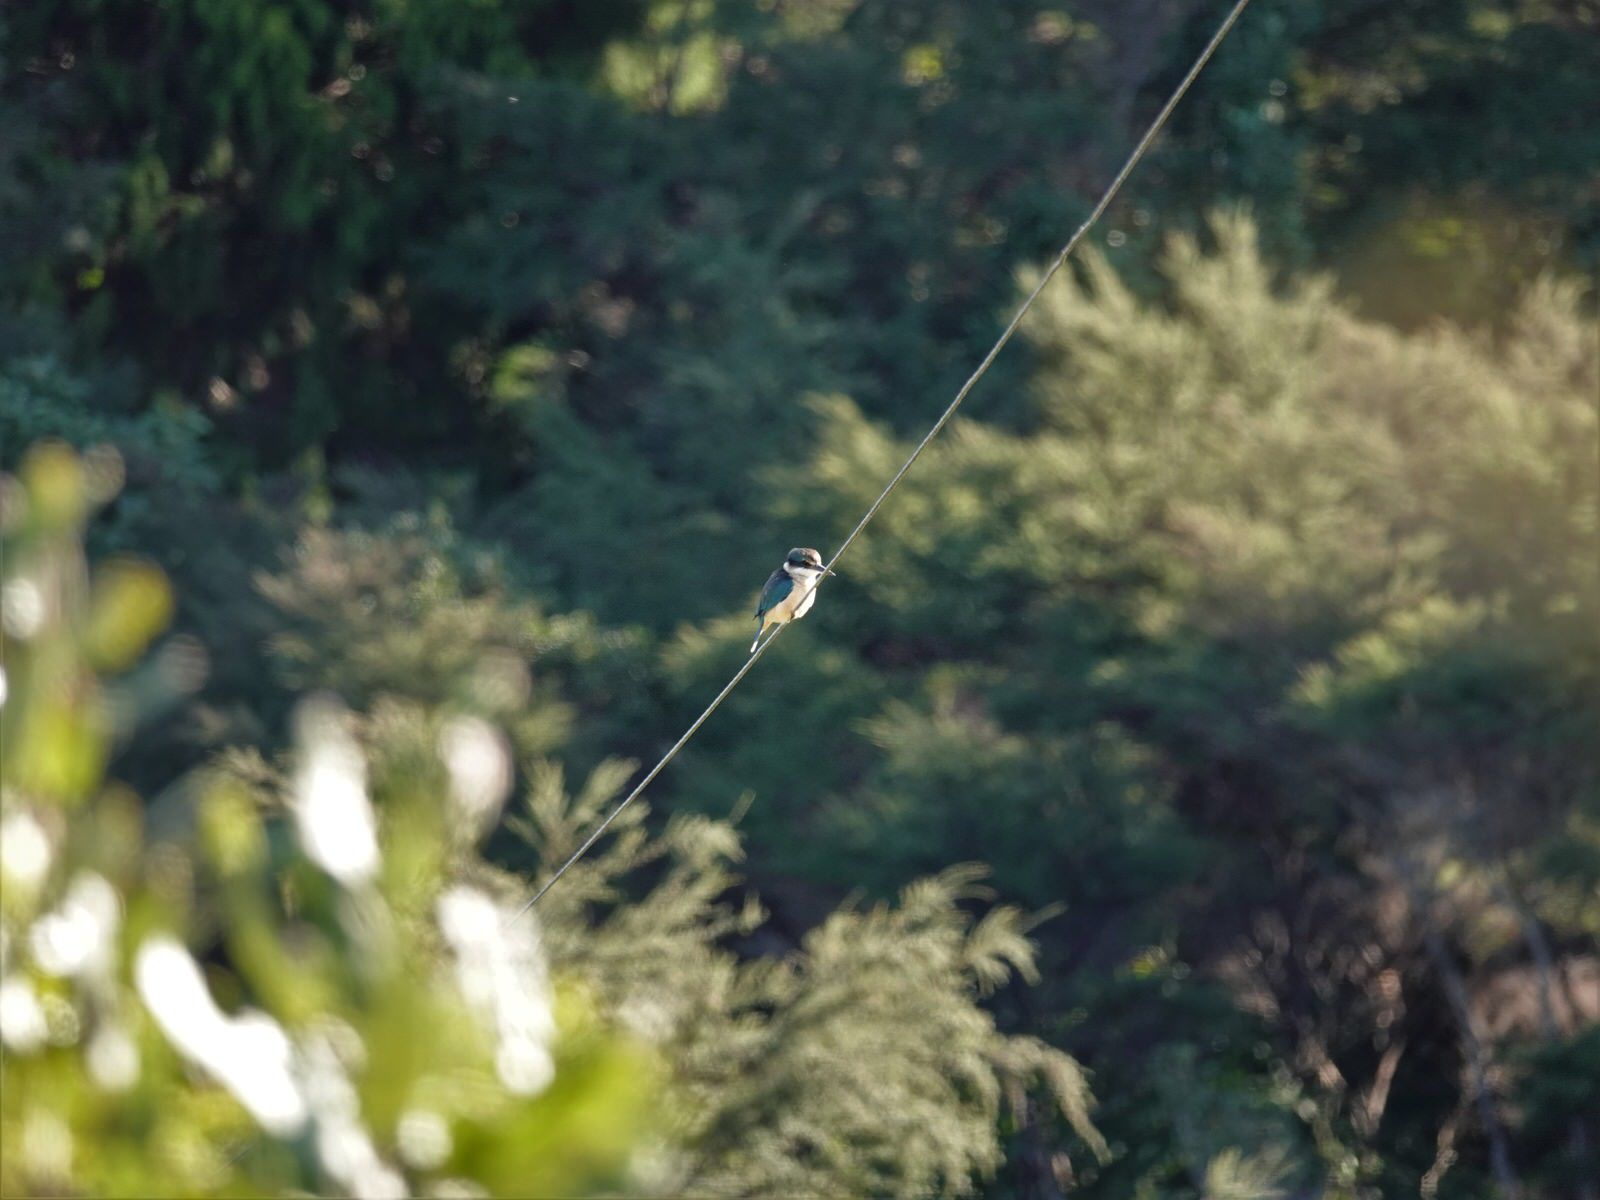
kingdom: Animalia
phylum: Chordata
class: Aves
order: Coraciiformes
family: Alcedinidae
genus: Todiramphus
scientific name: Todiramphus sanctus
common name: Sacred kingfisher
